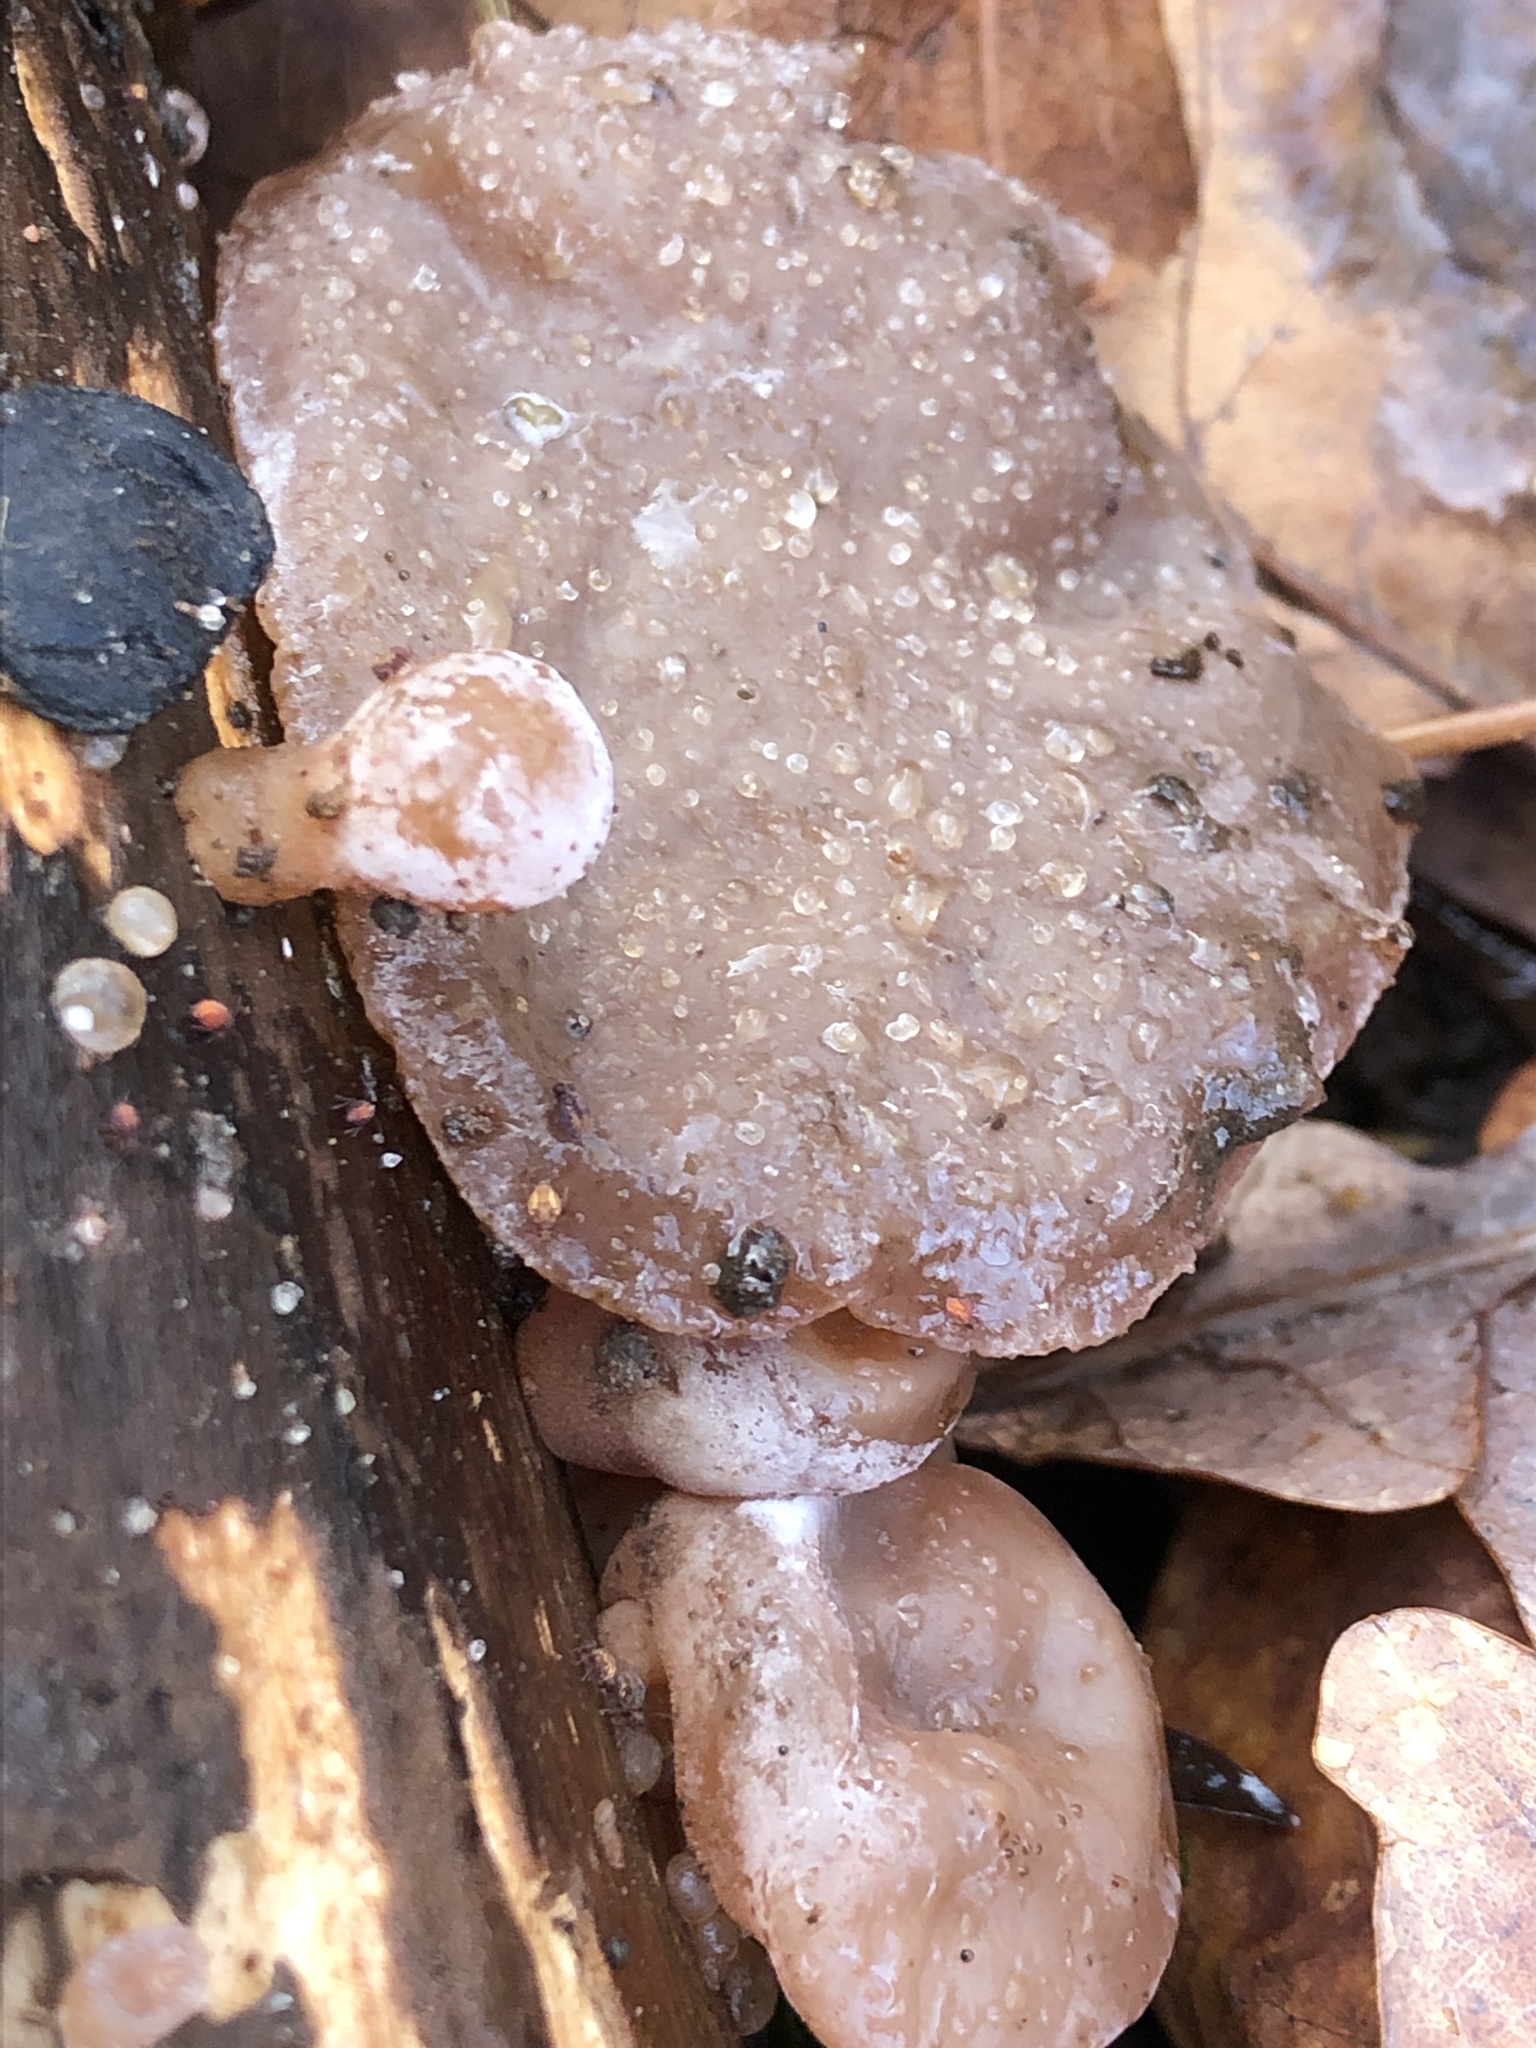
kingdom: Fungi
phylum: Ascomycota
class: Leotiomycetes
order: Helotiales
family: Gelatinodiscaceae
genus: Neobulgaria
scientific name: Neobulgaria pura
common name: Beech jelly-disc
